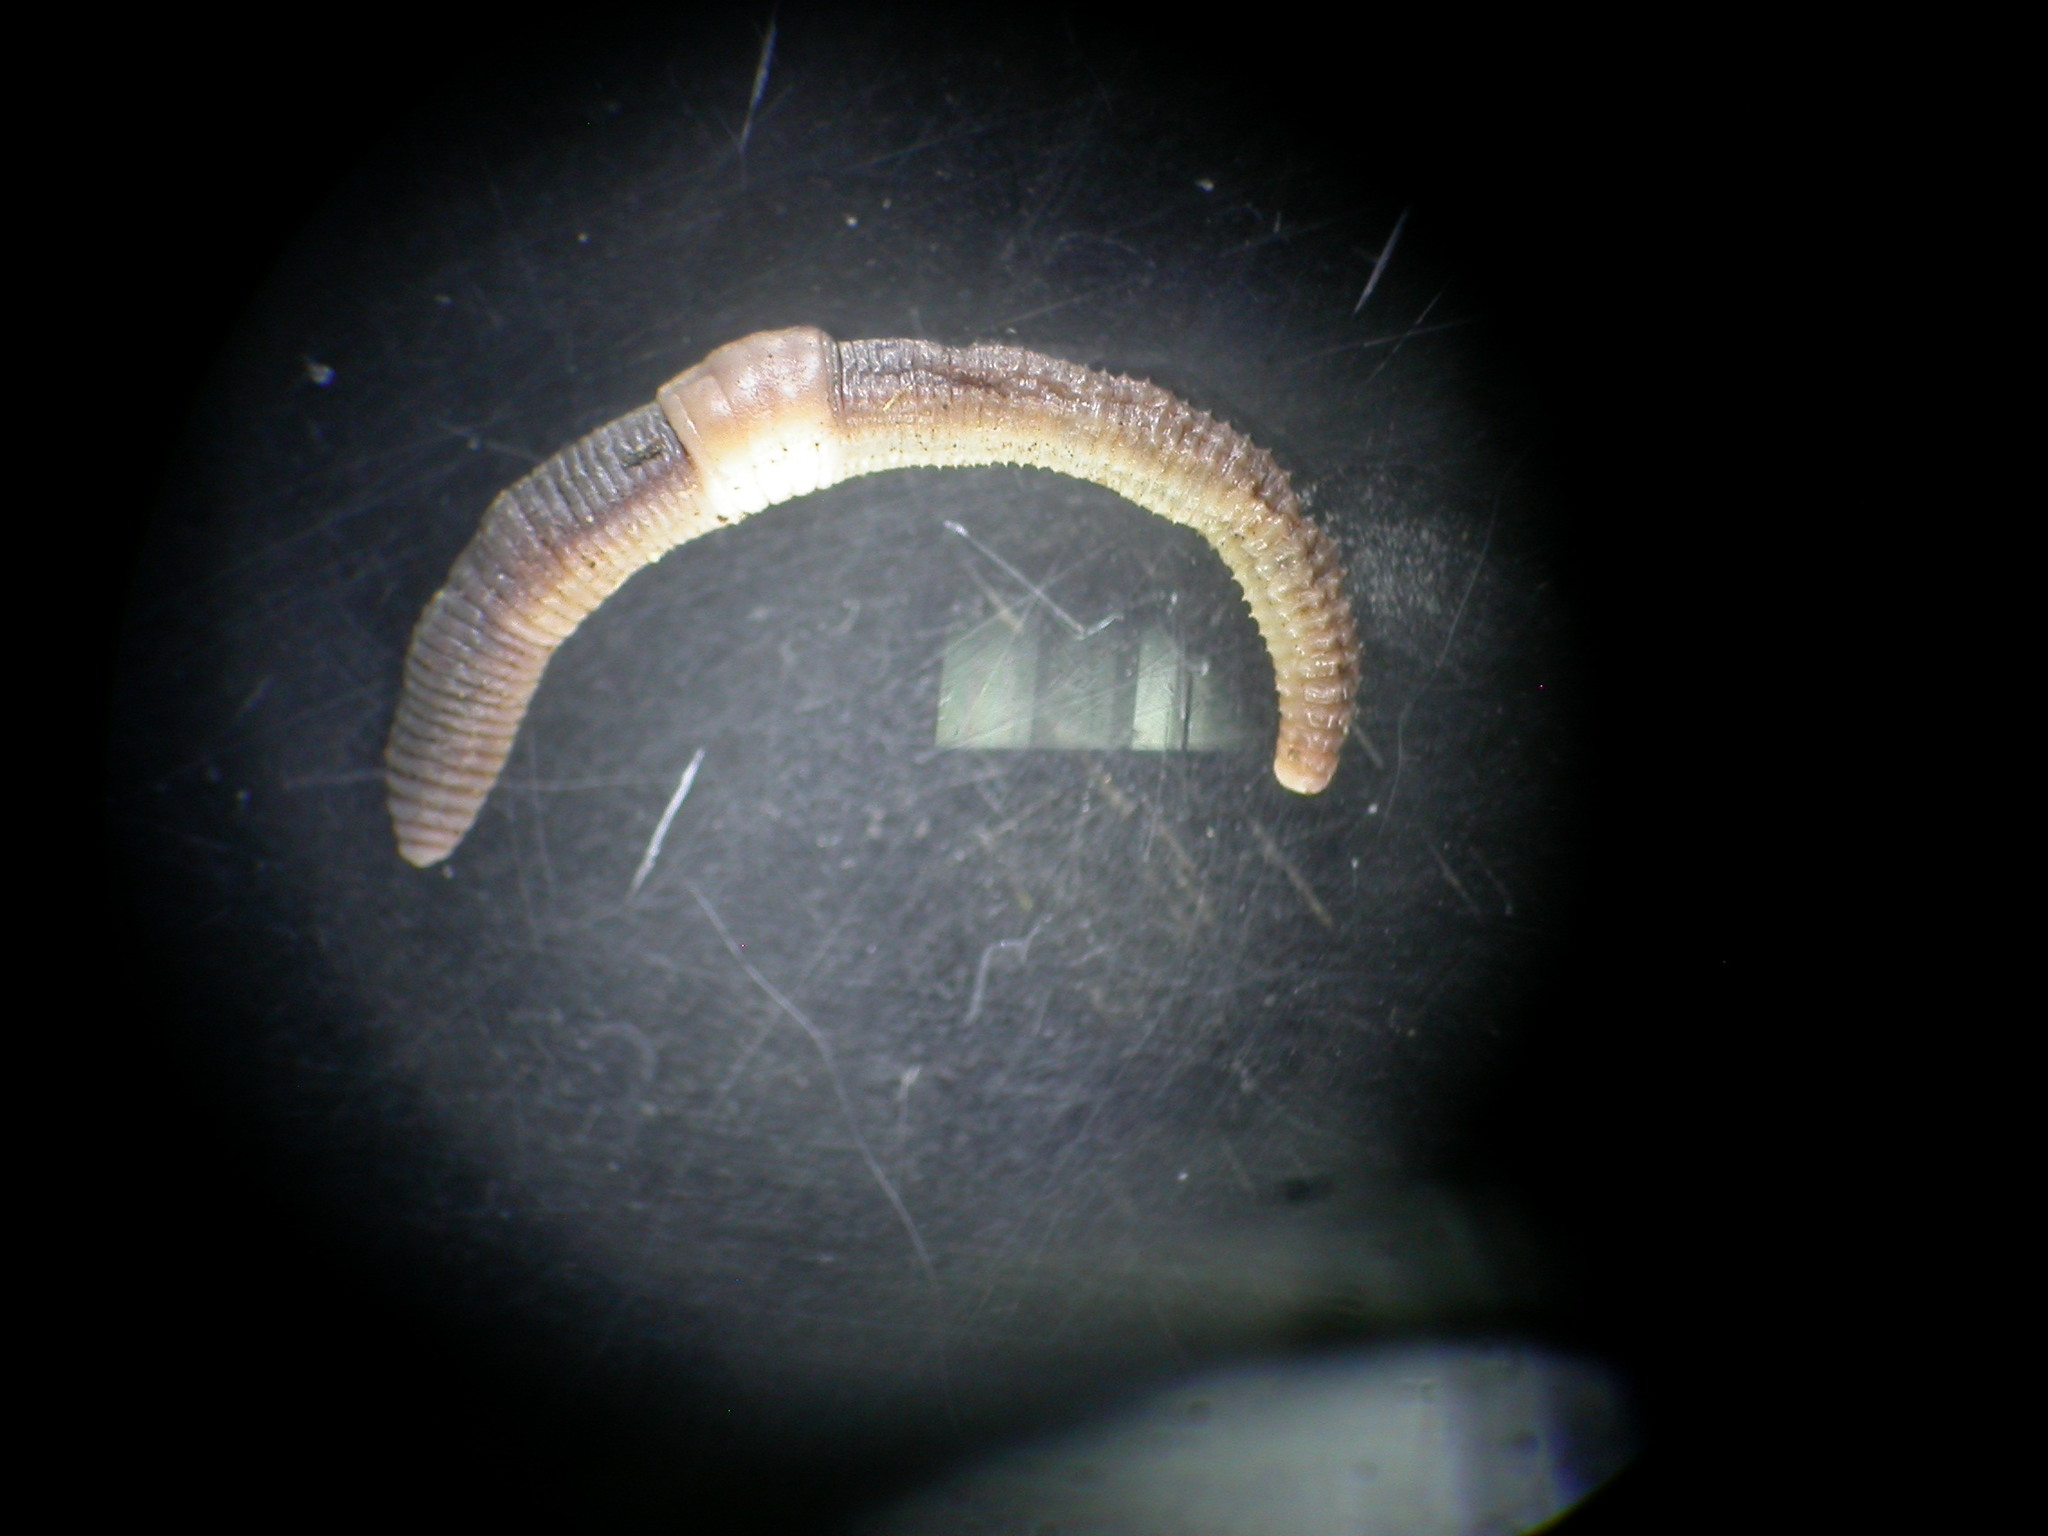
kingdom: Animalia
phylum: Annelida
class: Clitellata
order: Crassiclitellata
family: Lumbricidae
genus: Dendrobaena
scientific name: Dendrobaena octaedra
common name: Octagonal-tail worm
